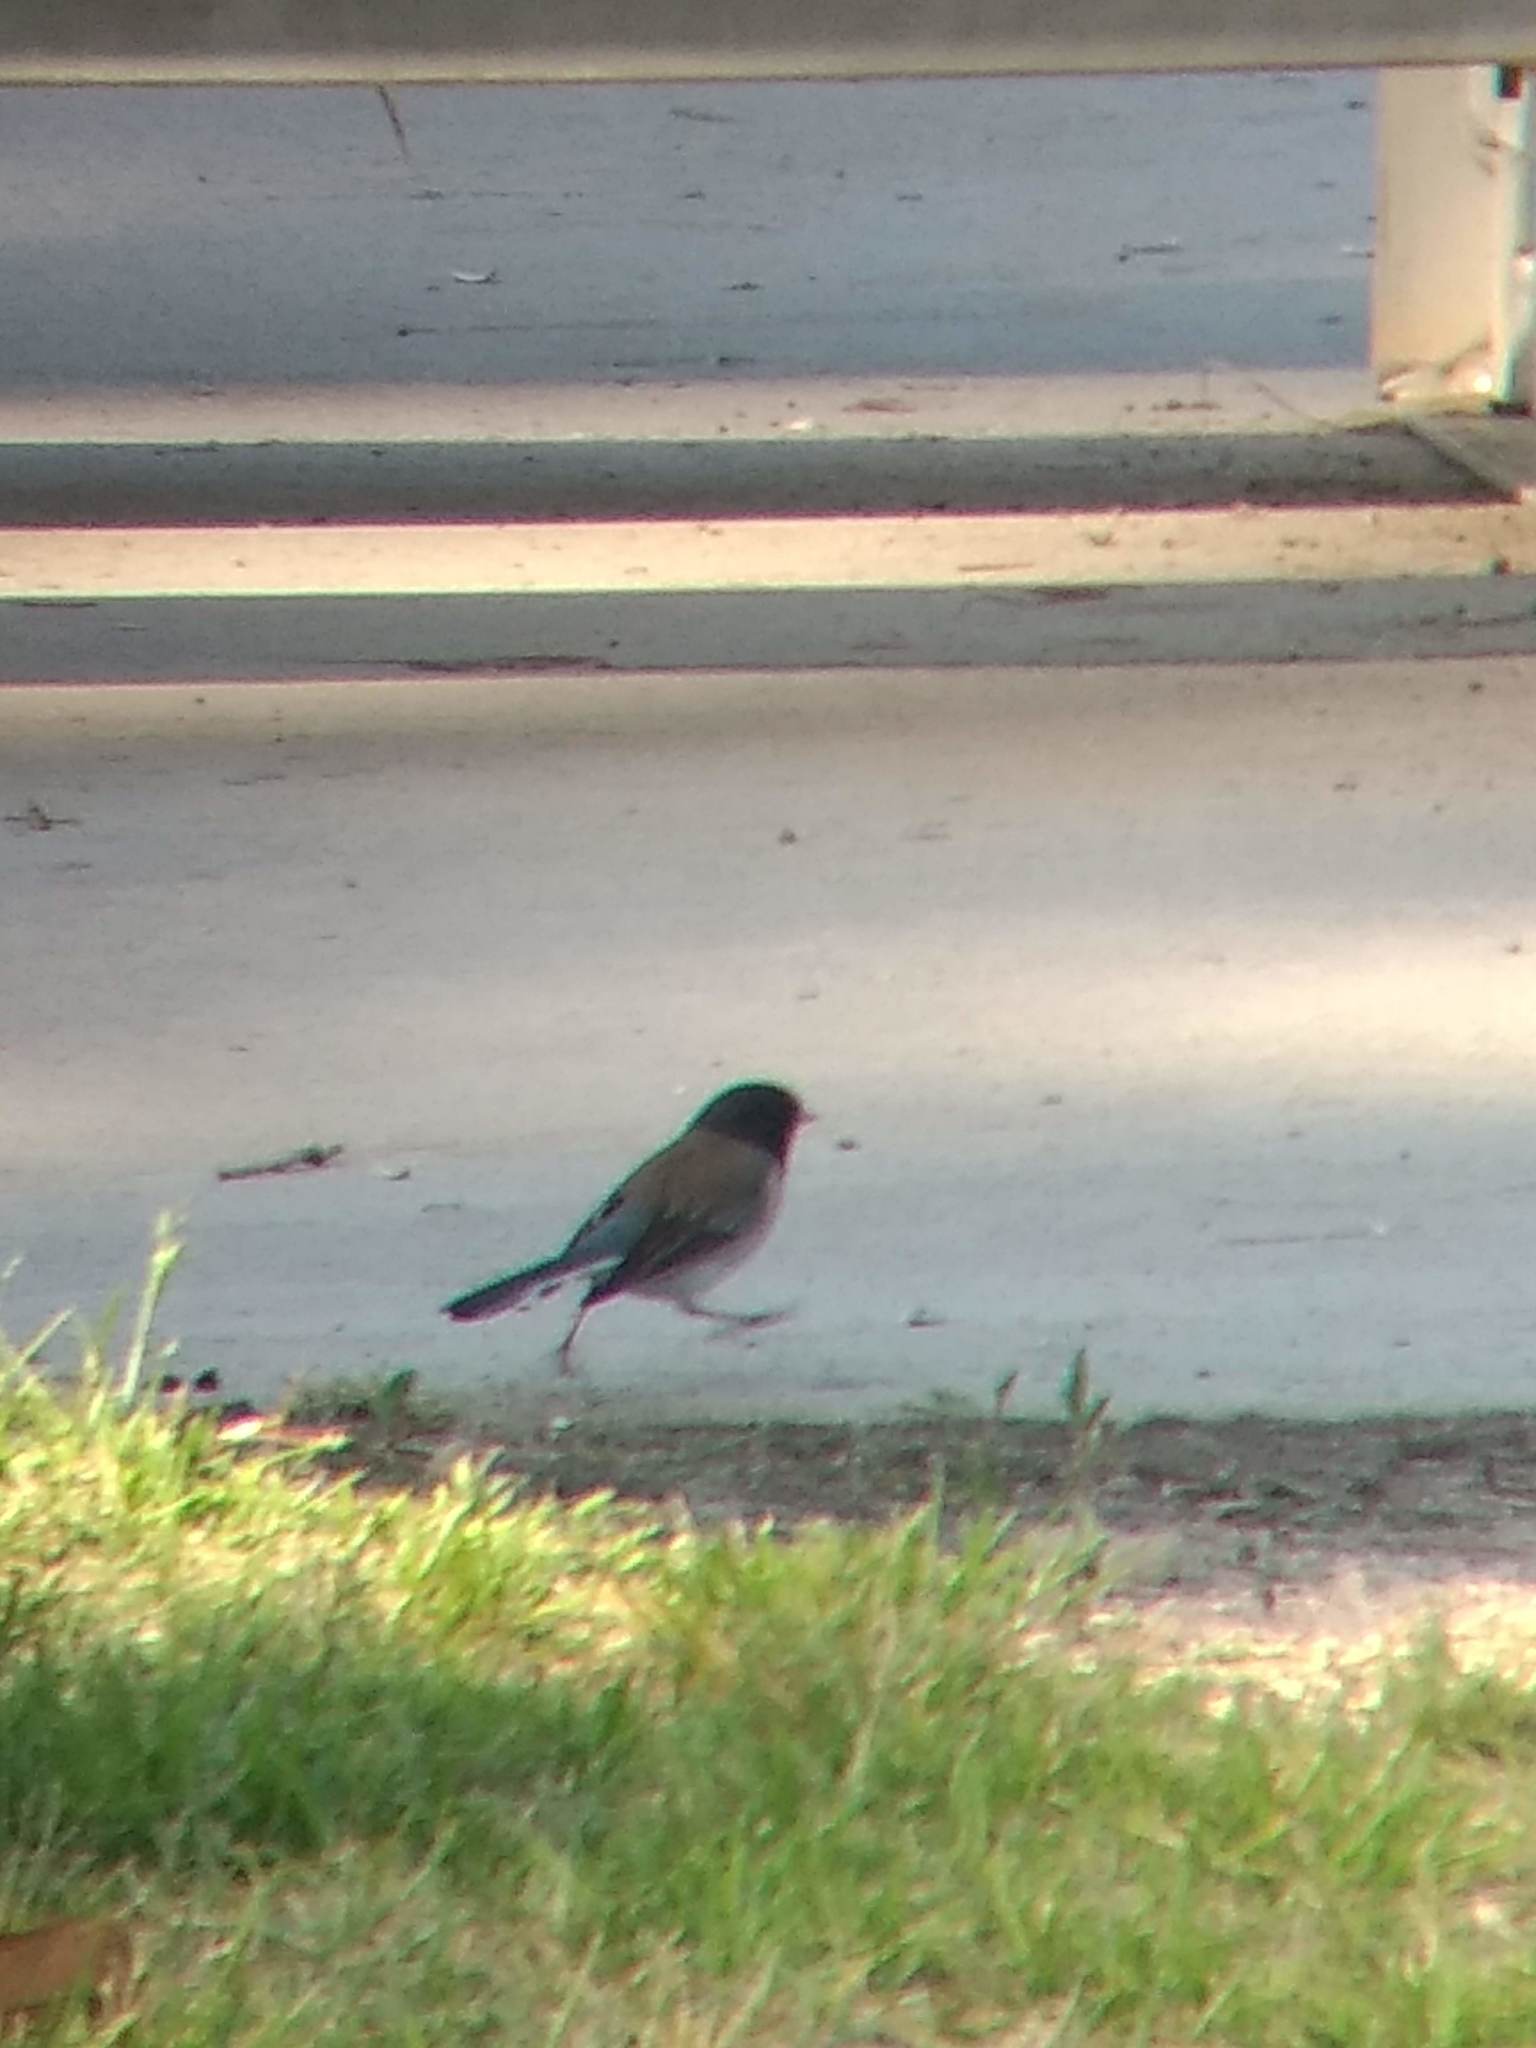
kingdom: Animalia
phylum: Chordata
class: Aves
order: Passeriformes
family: Passerellidae
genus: Junco
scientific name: Junco hyemalis
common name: Dark-eyed junco
